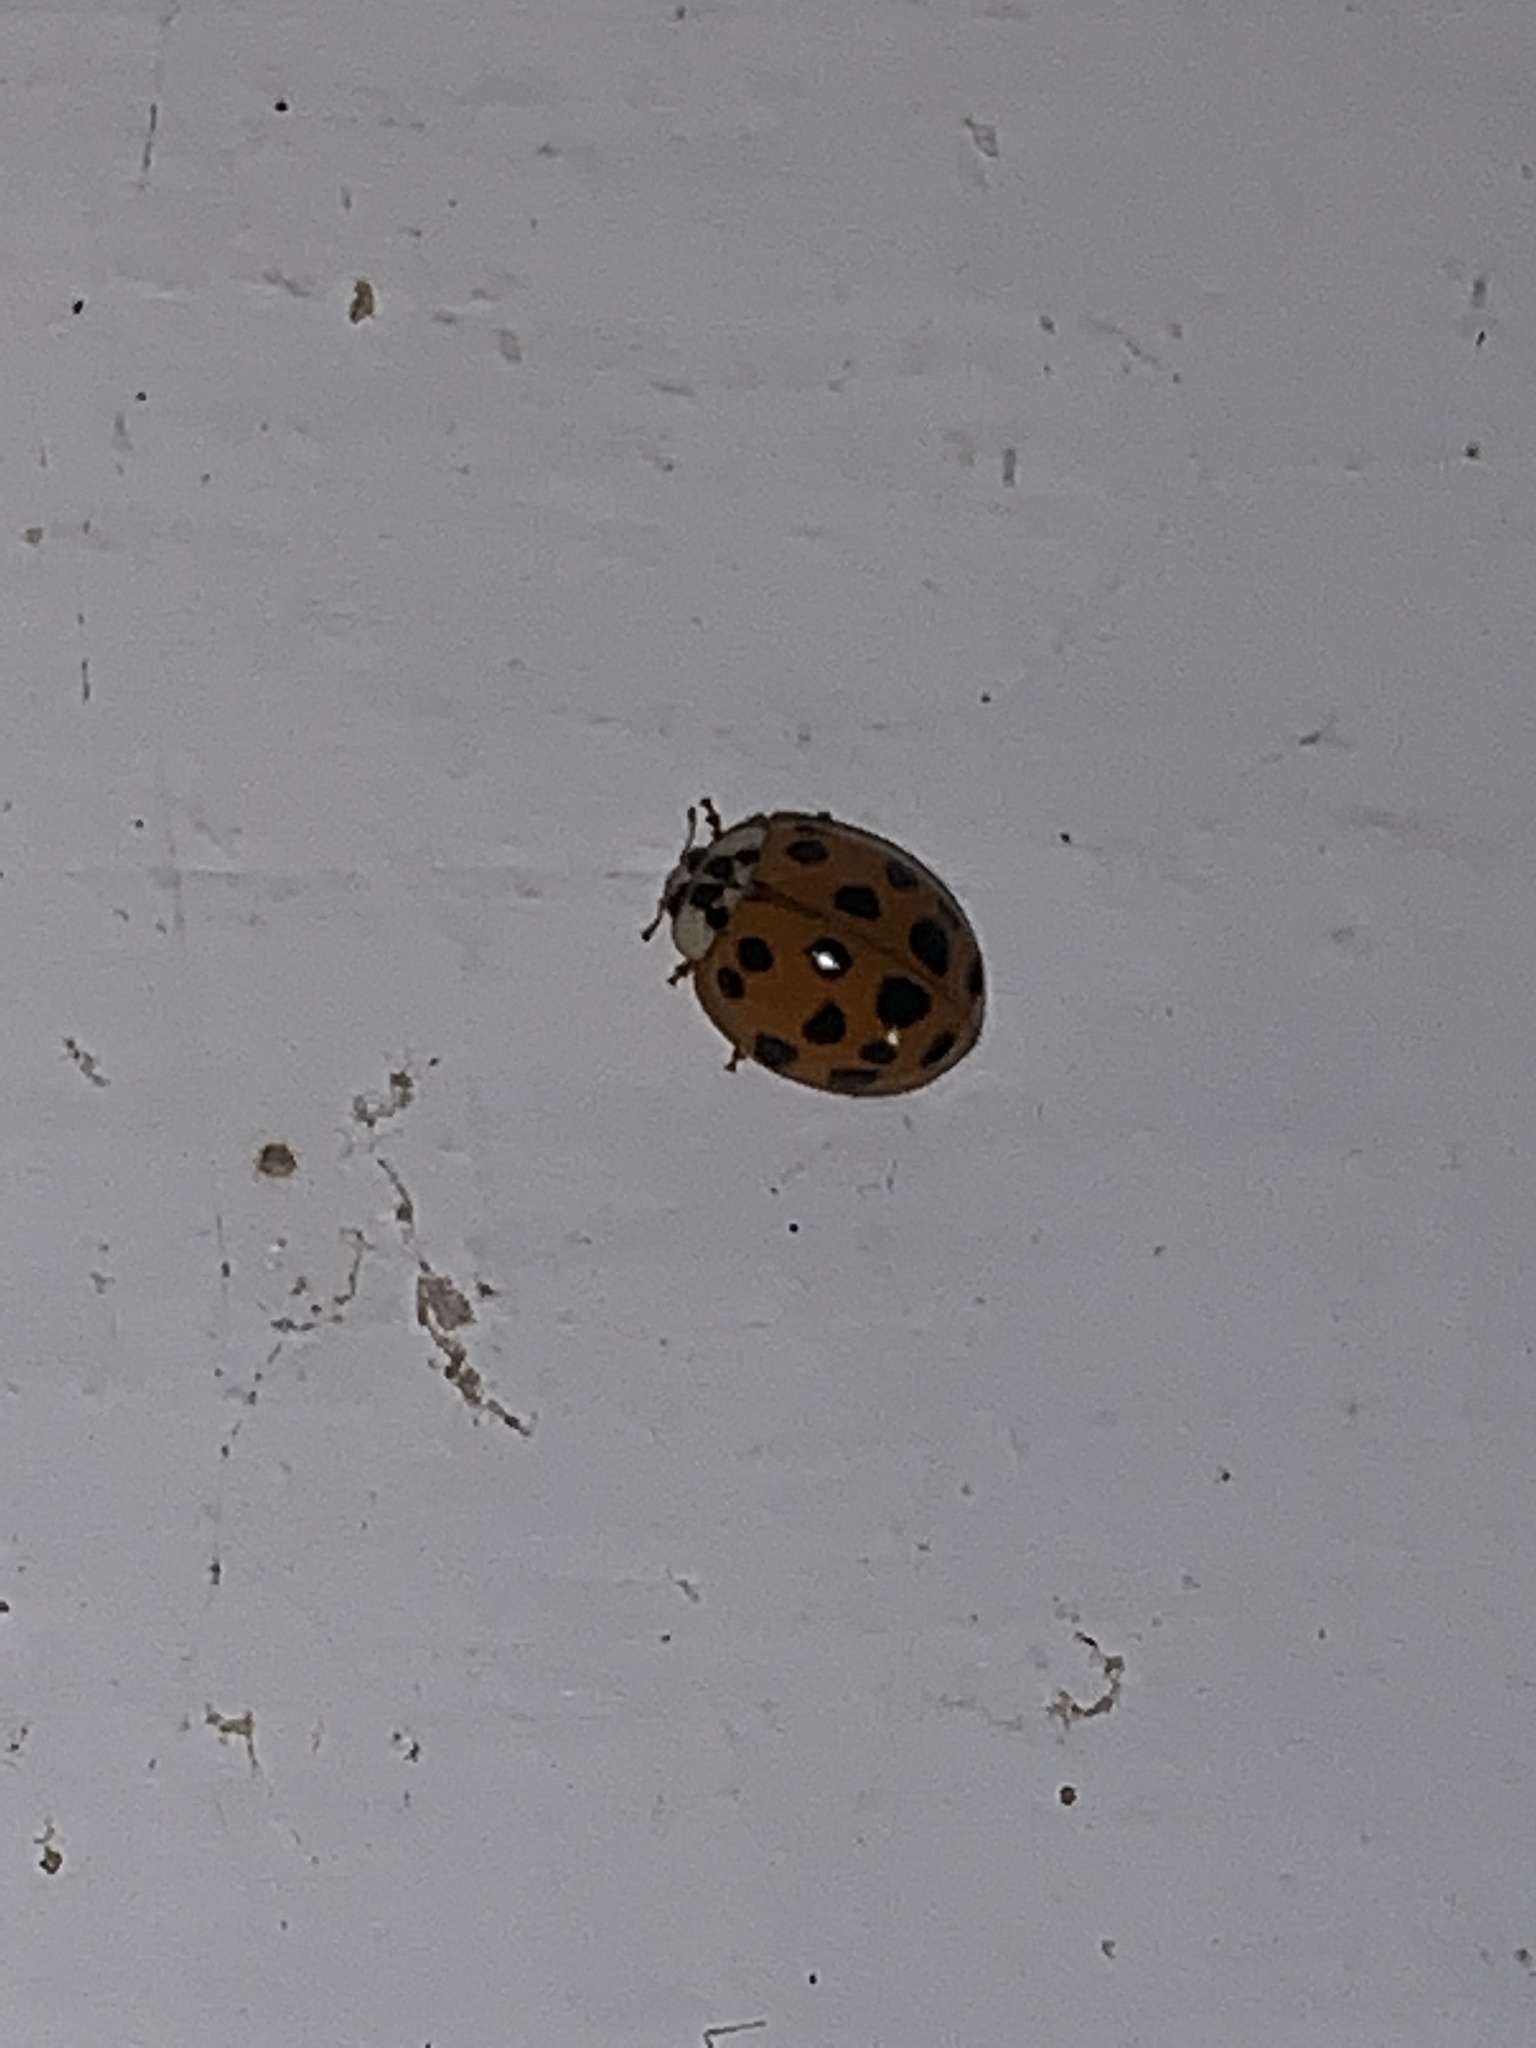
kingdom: Animalia
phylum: Arthropoda
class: Insecta
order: Coleoptera
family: Coccinellidae
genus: Harmonia
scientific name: Harmonia axyridis
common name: Harlequin ladybird
